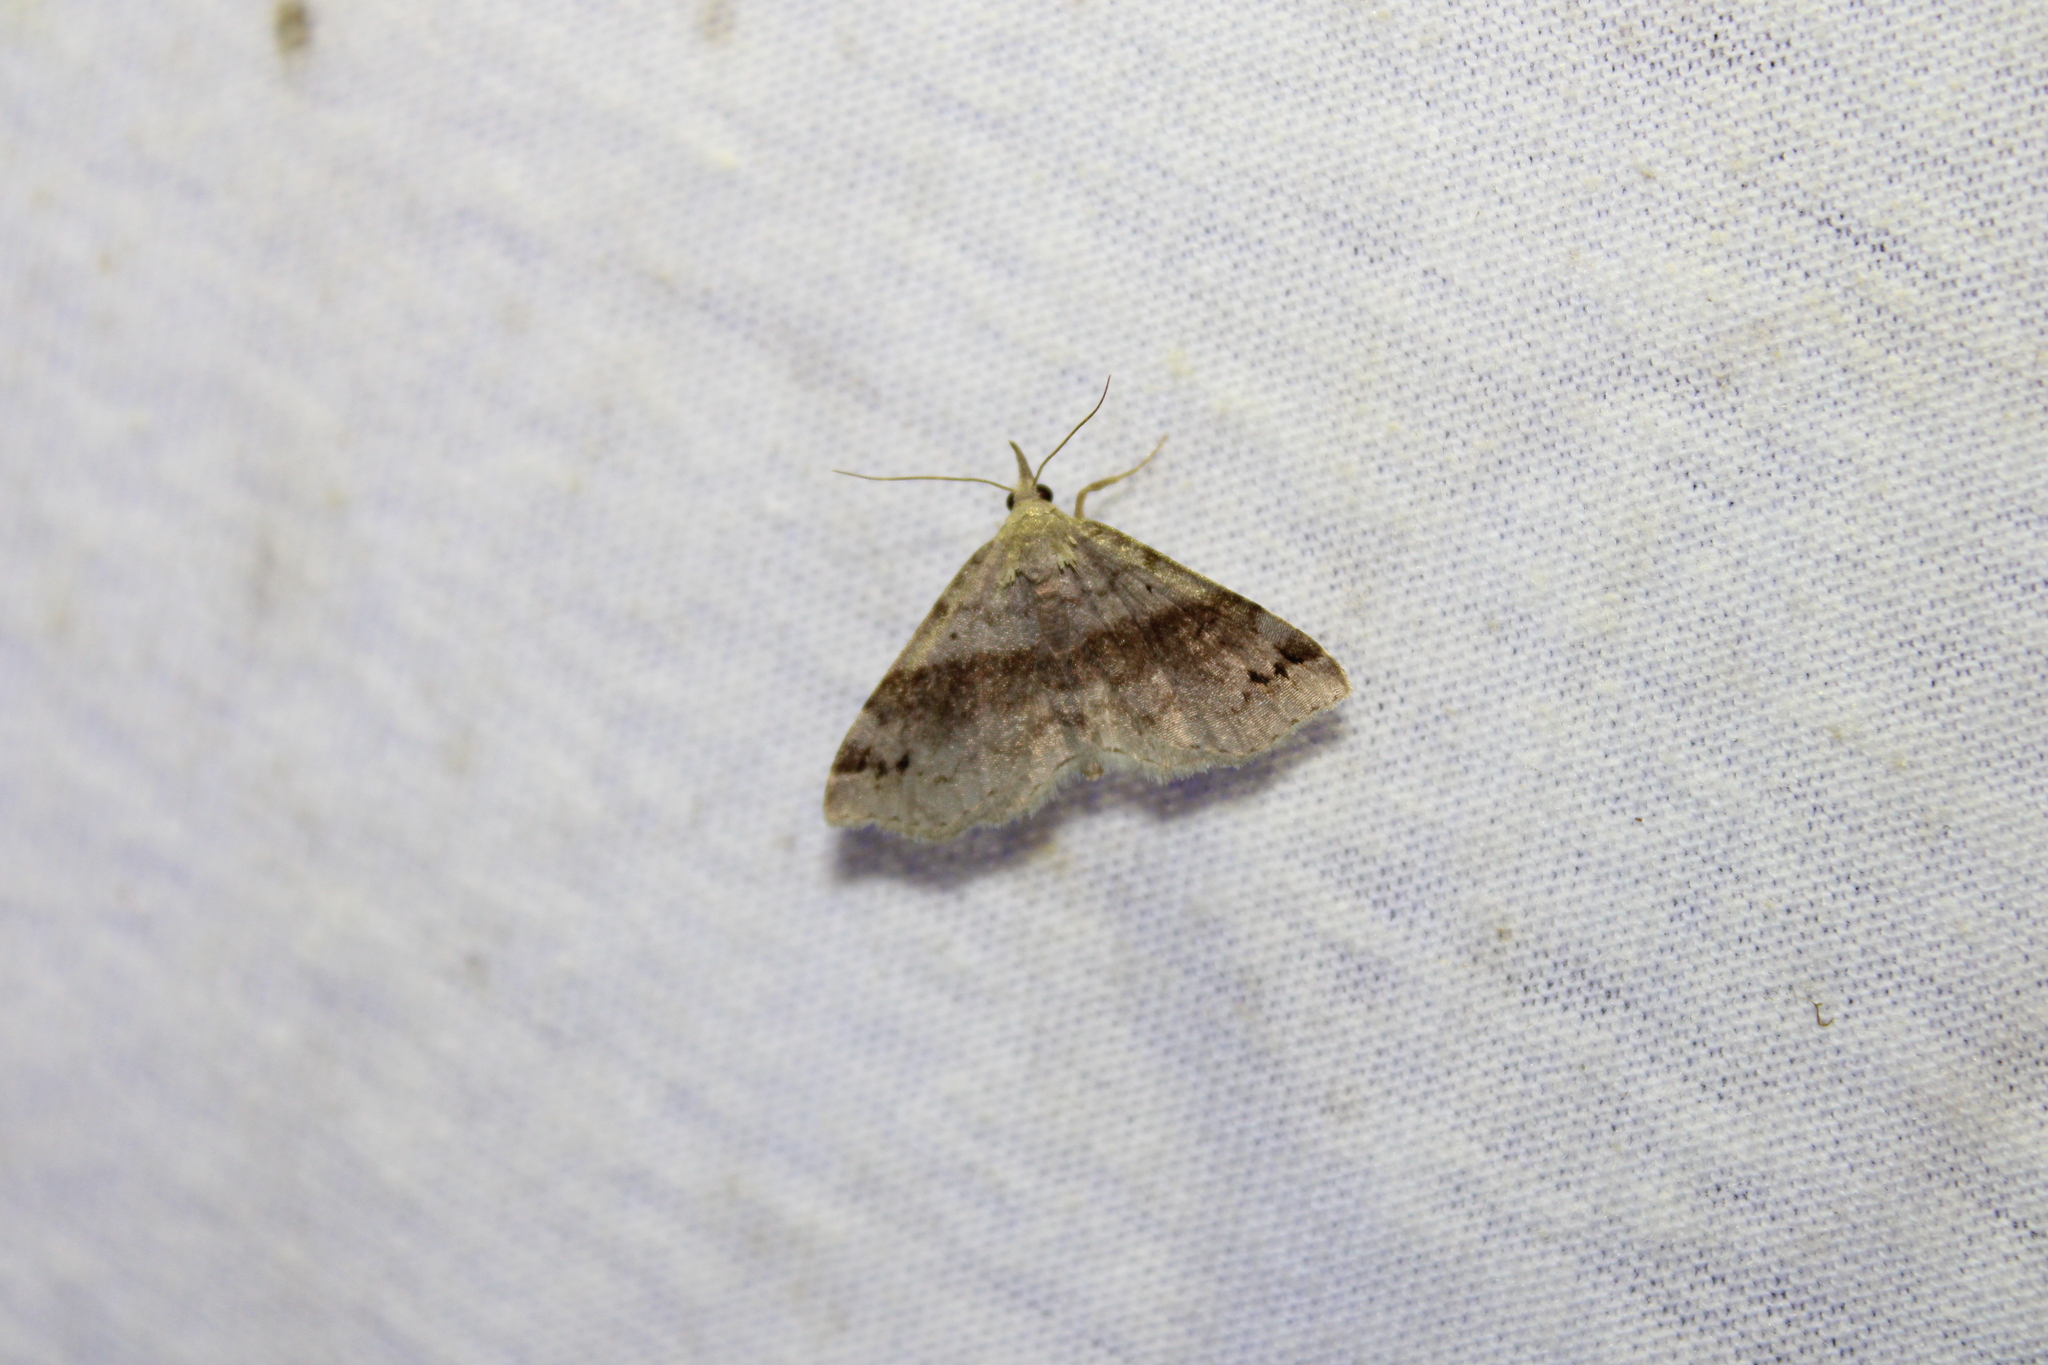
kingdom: Animalia
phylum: Arthropoda
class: Insecta
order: Lepidoptera
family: Erebidae
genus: Spargaloma
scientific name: Spargaloma sexpunctata
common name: Six-spotted gray
